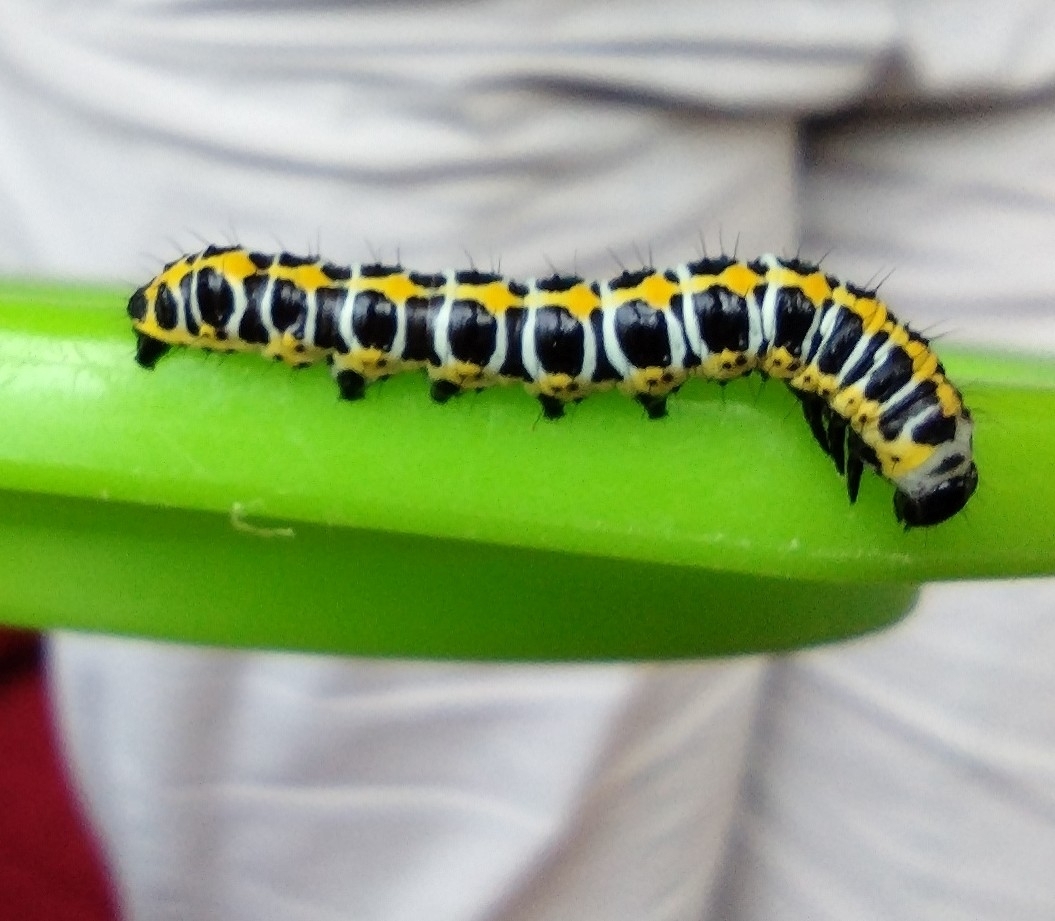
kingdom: Animalia
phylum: Arthropoda
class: Insecta
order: Lepidoptera
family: Noctuidae
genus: Cucullia
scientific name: Cucullia lactucae
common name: Lettuce shark
